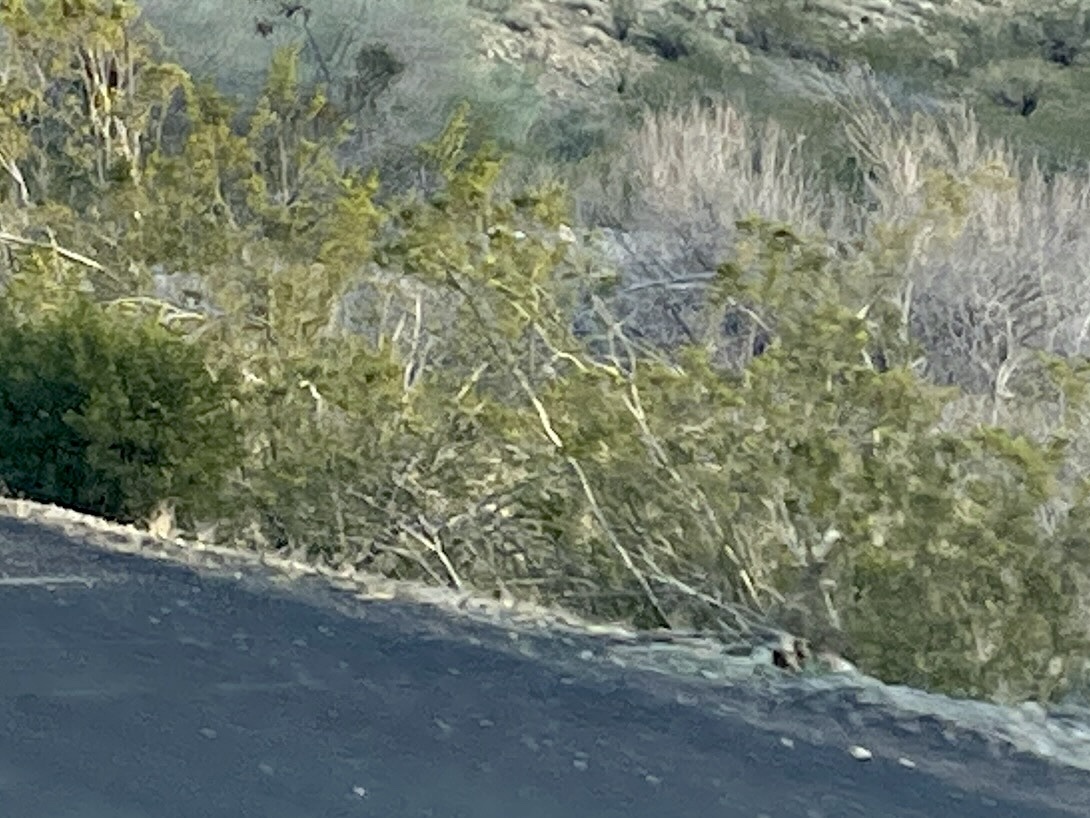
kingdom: Plantae
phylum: Tracheophyta
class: Magnoliopsida
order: Zygophyllales
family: Zygophyllaceae
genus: Larrea
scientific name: Larrea tridentata
